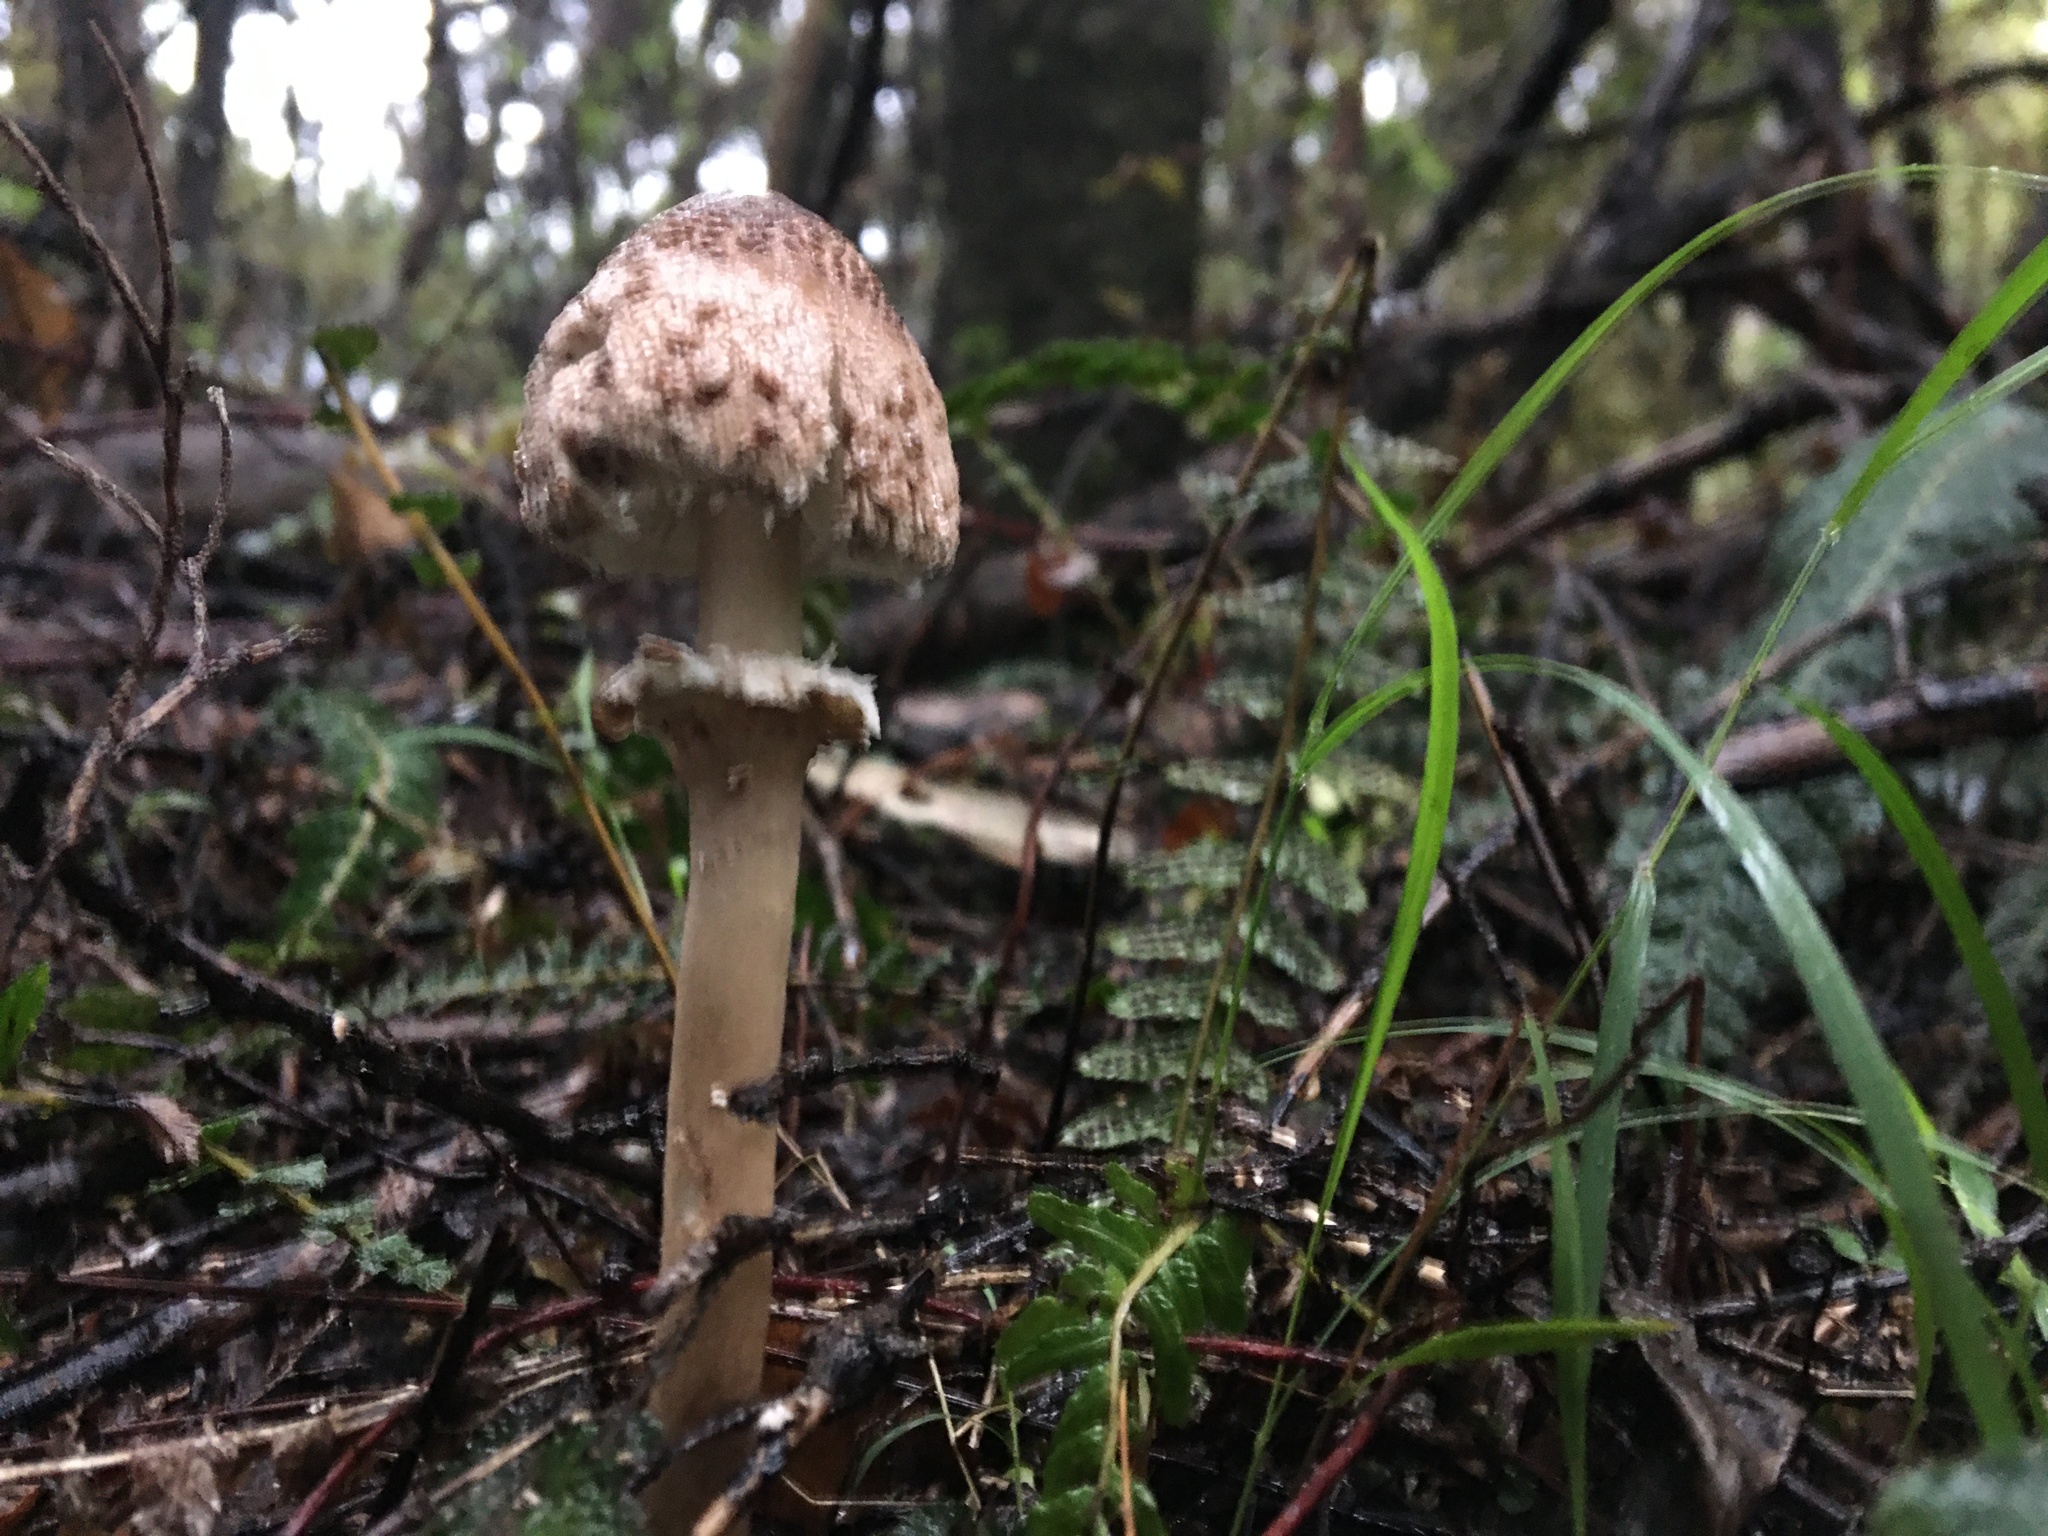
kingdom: Fungi
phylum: Basidiomycota
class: Agaricomycetes
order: Agaricales
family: Agaricaceae
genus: Macrolepiota
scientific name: Macrolepiota clelandii
